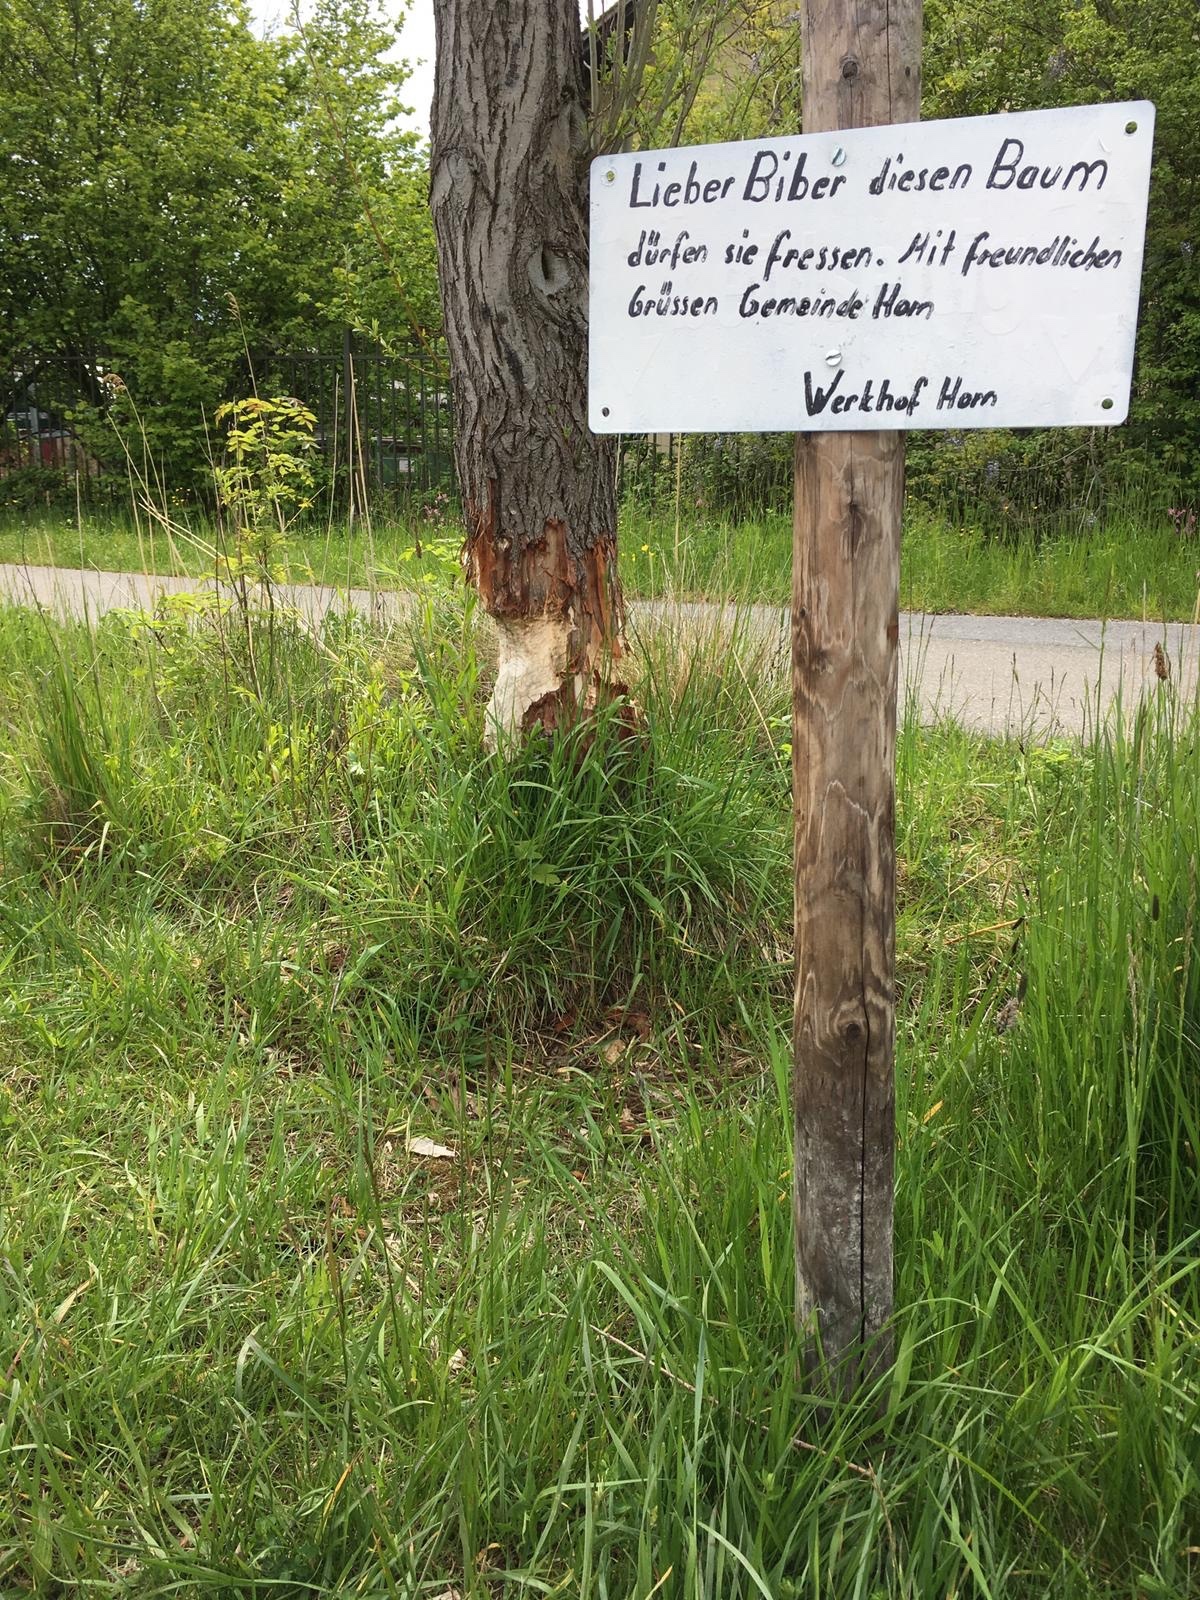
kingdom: Animalia
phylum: Chordata
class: Mammalia
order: Rodentia
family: Castoridae
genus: Castor
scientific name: Castor fiber
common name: Eurasian beaver
